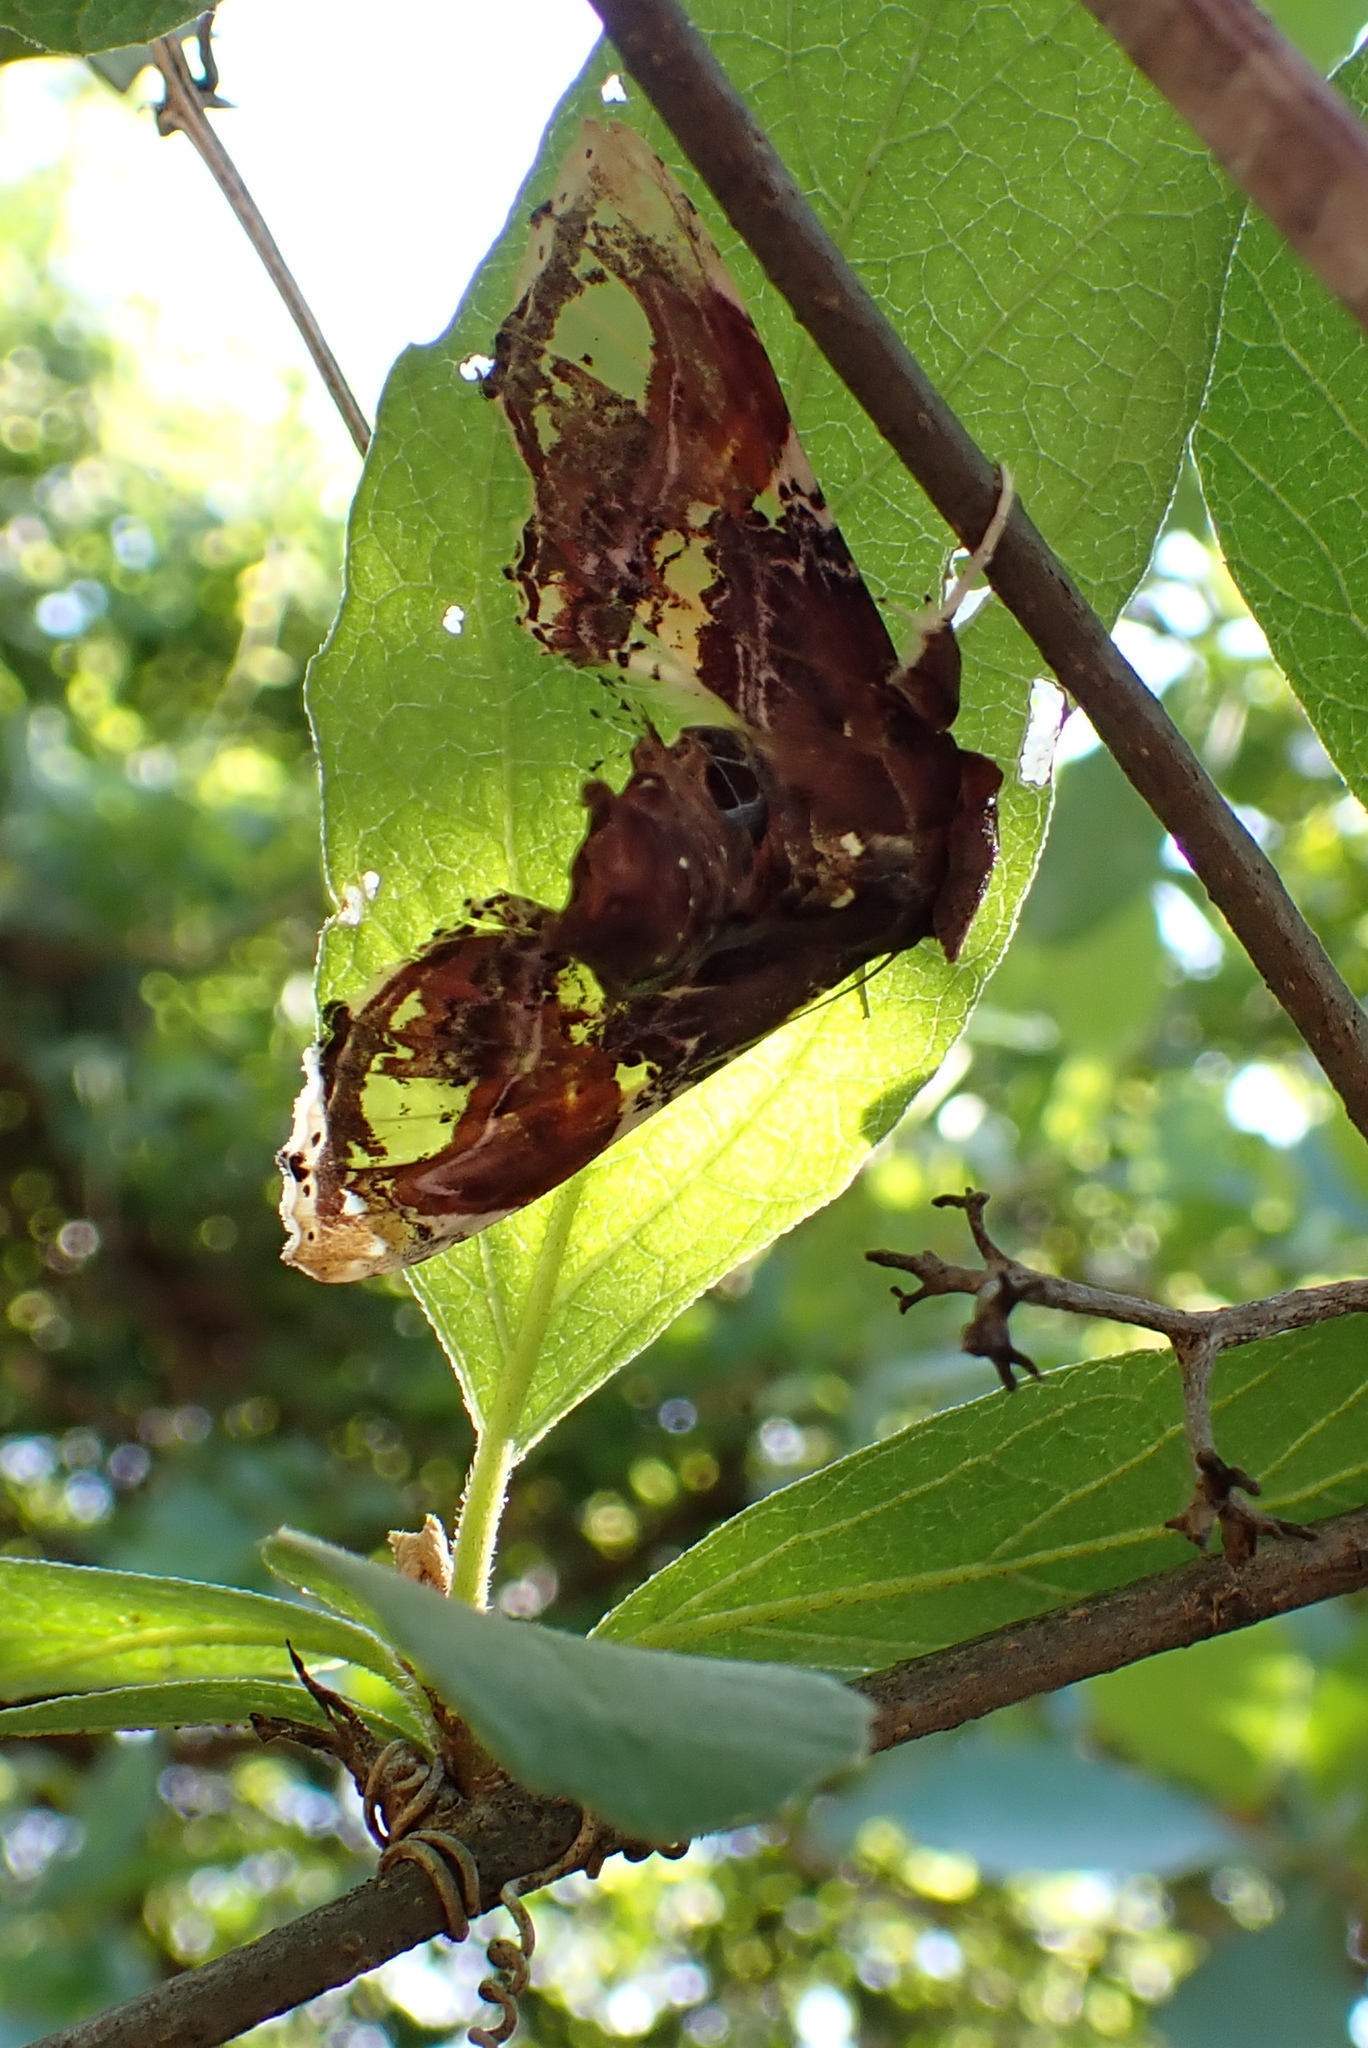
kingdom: Animalia
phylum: Arthropoda
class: Insecta
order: Lepidoptera
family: Euteliidae
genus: Caligatus
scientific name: Caligatus angasii
